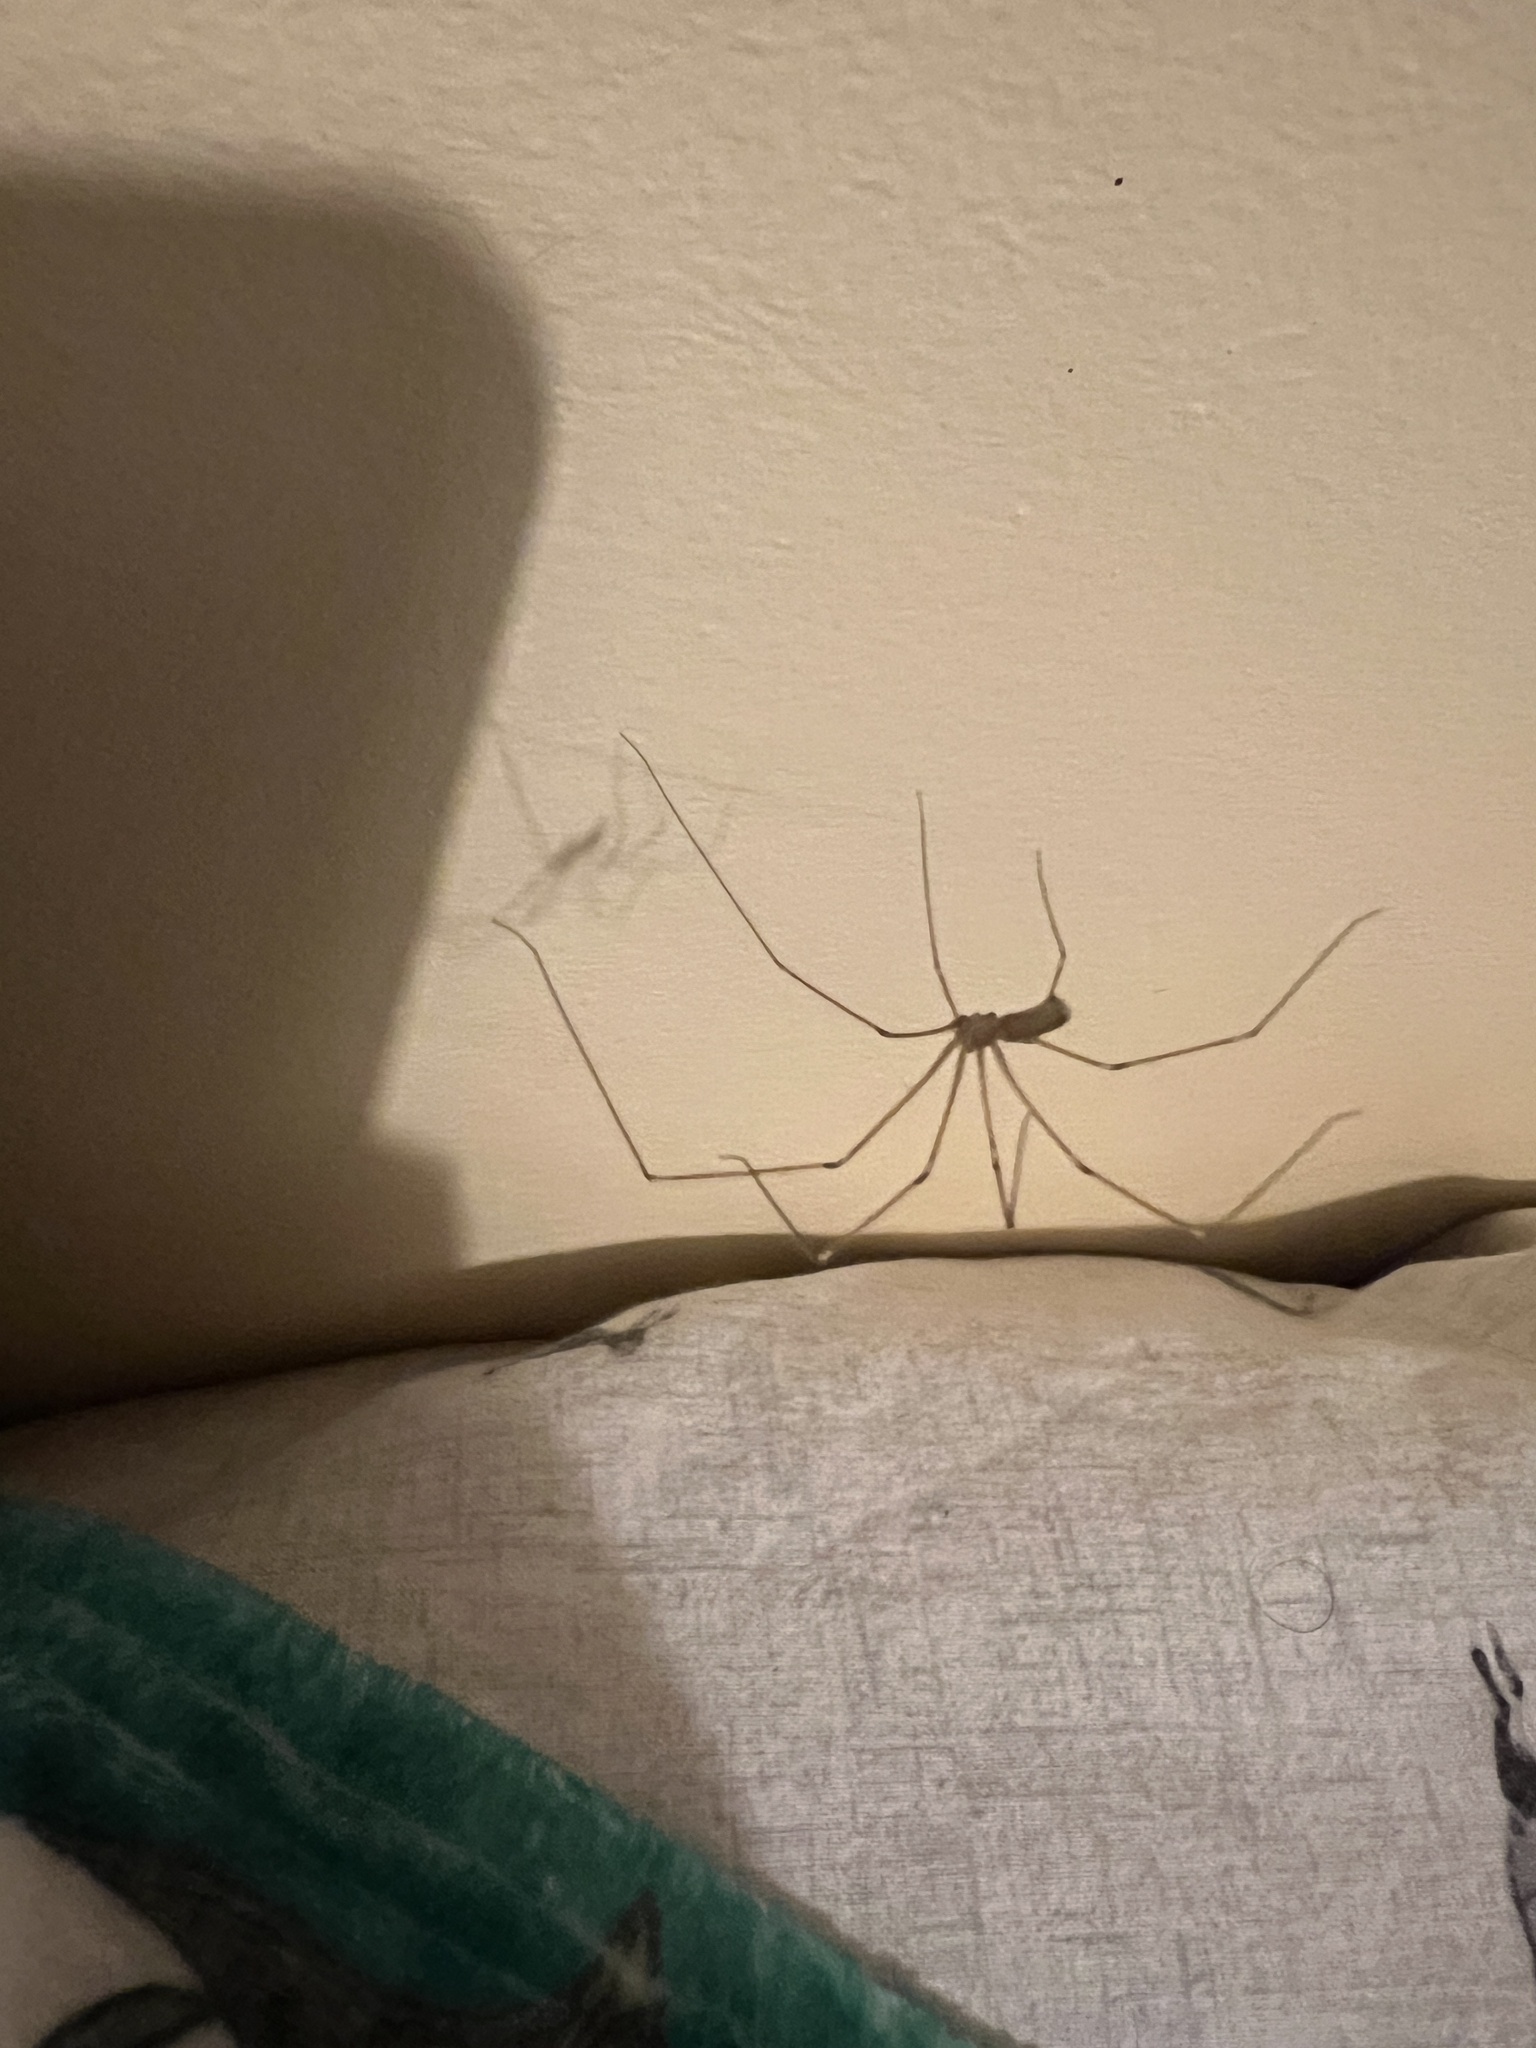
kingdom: Animalia
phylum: Arthropoda
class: Arachnida
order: Araneae
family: Pholcidae
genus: Pholcus
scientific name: Pholcus phalangioides
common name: Longbodied cellar spider
